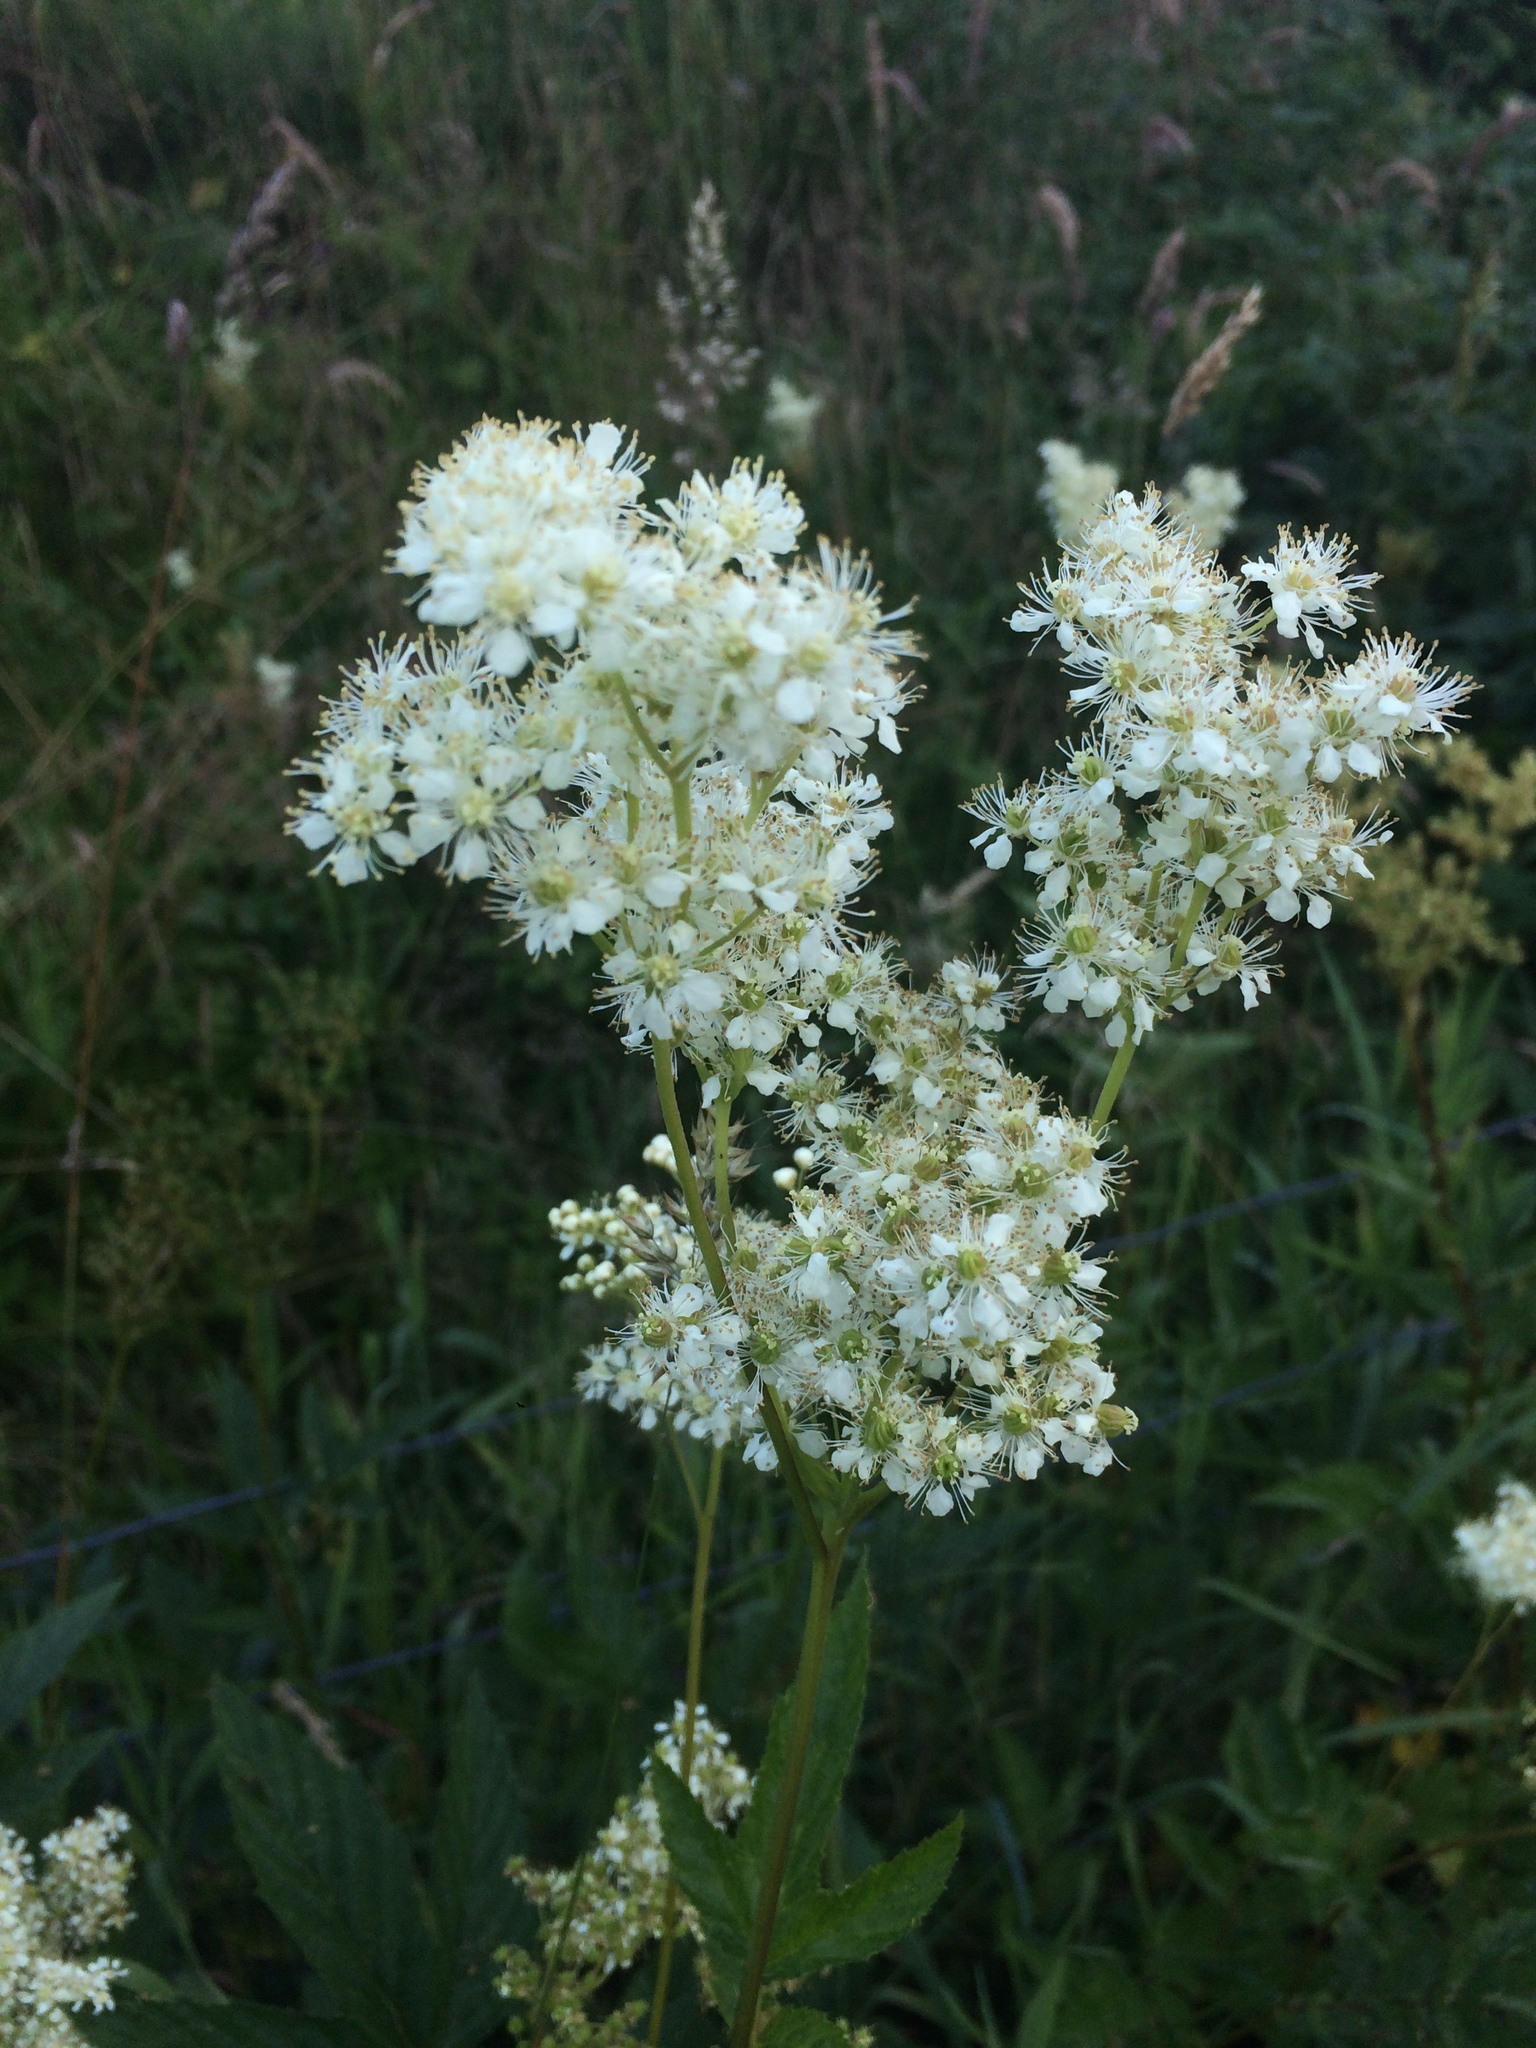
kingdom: Plantae
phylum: Tracheophyta
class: Magnoliopsida
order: Rosales
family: Rosaceae
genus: Filipendula
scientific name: Filipendula ulmaria
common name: Meadowsweet
